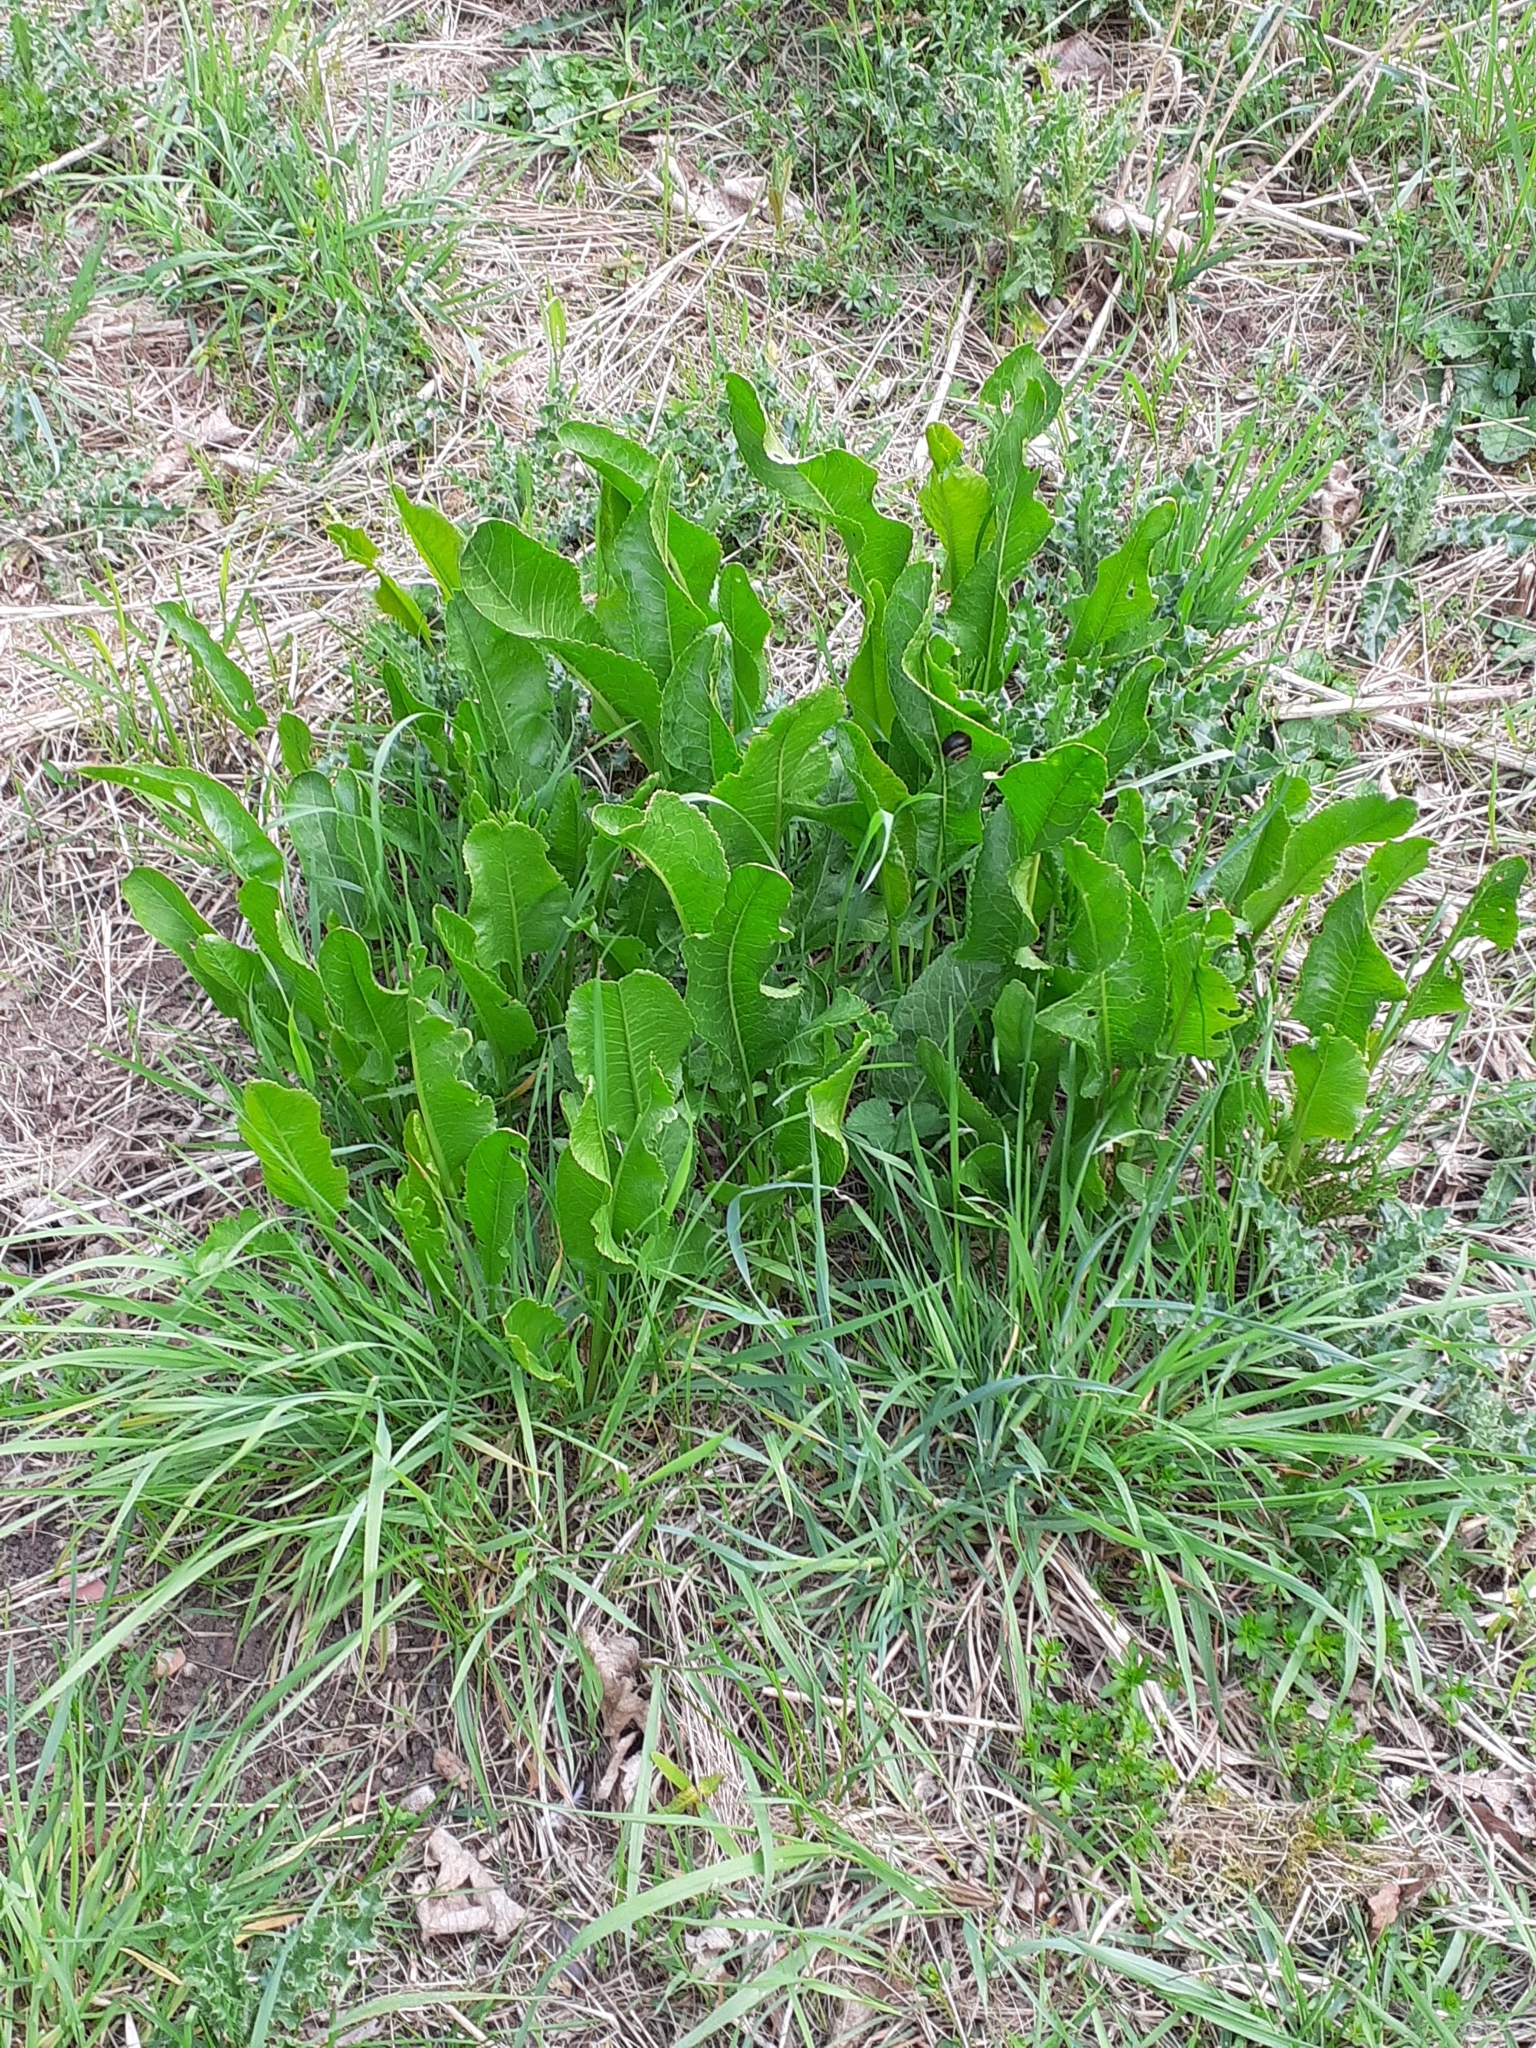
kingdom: Plantae
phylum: Tracheophyta
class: Magnoliopsida
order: Brassicales
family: Brassicaceae
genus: Armoracia
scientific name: Armoracia rusticana
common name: Horseradish
